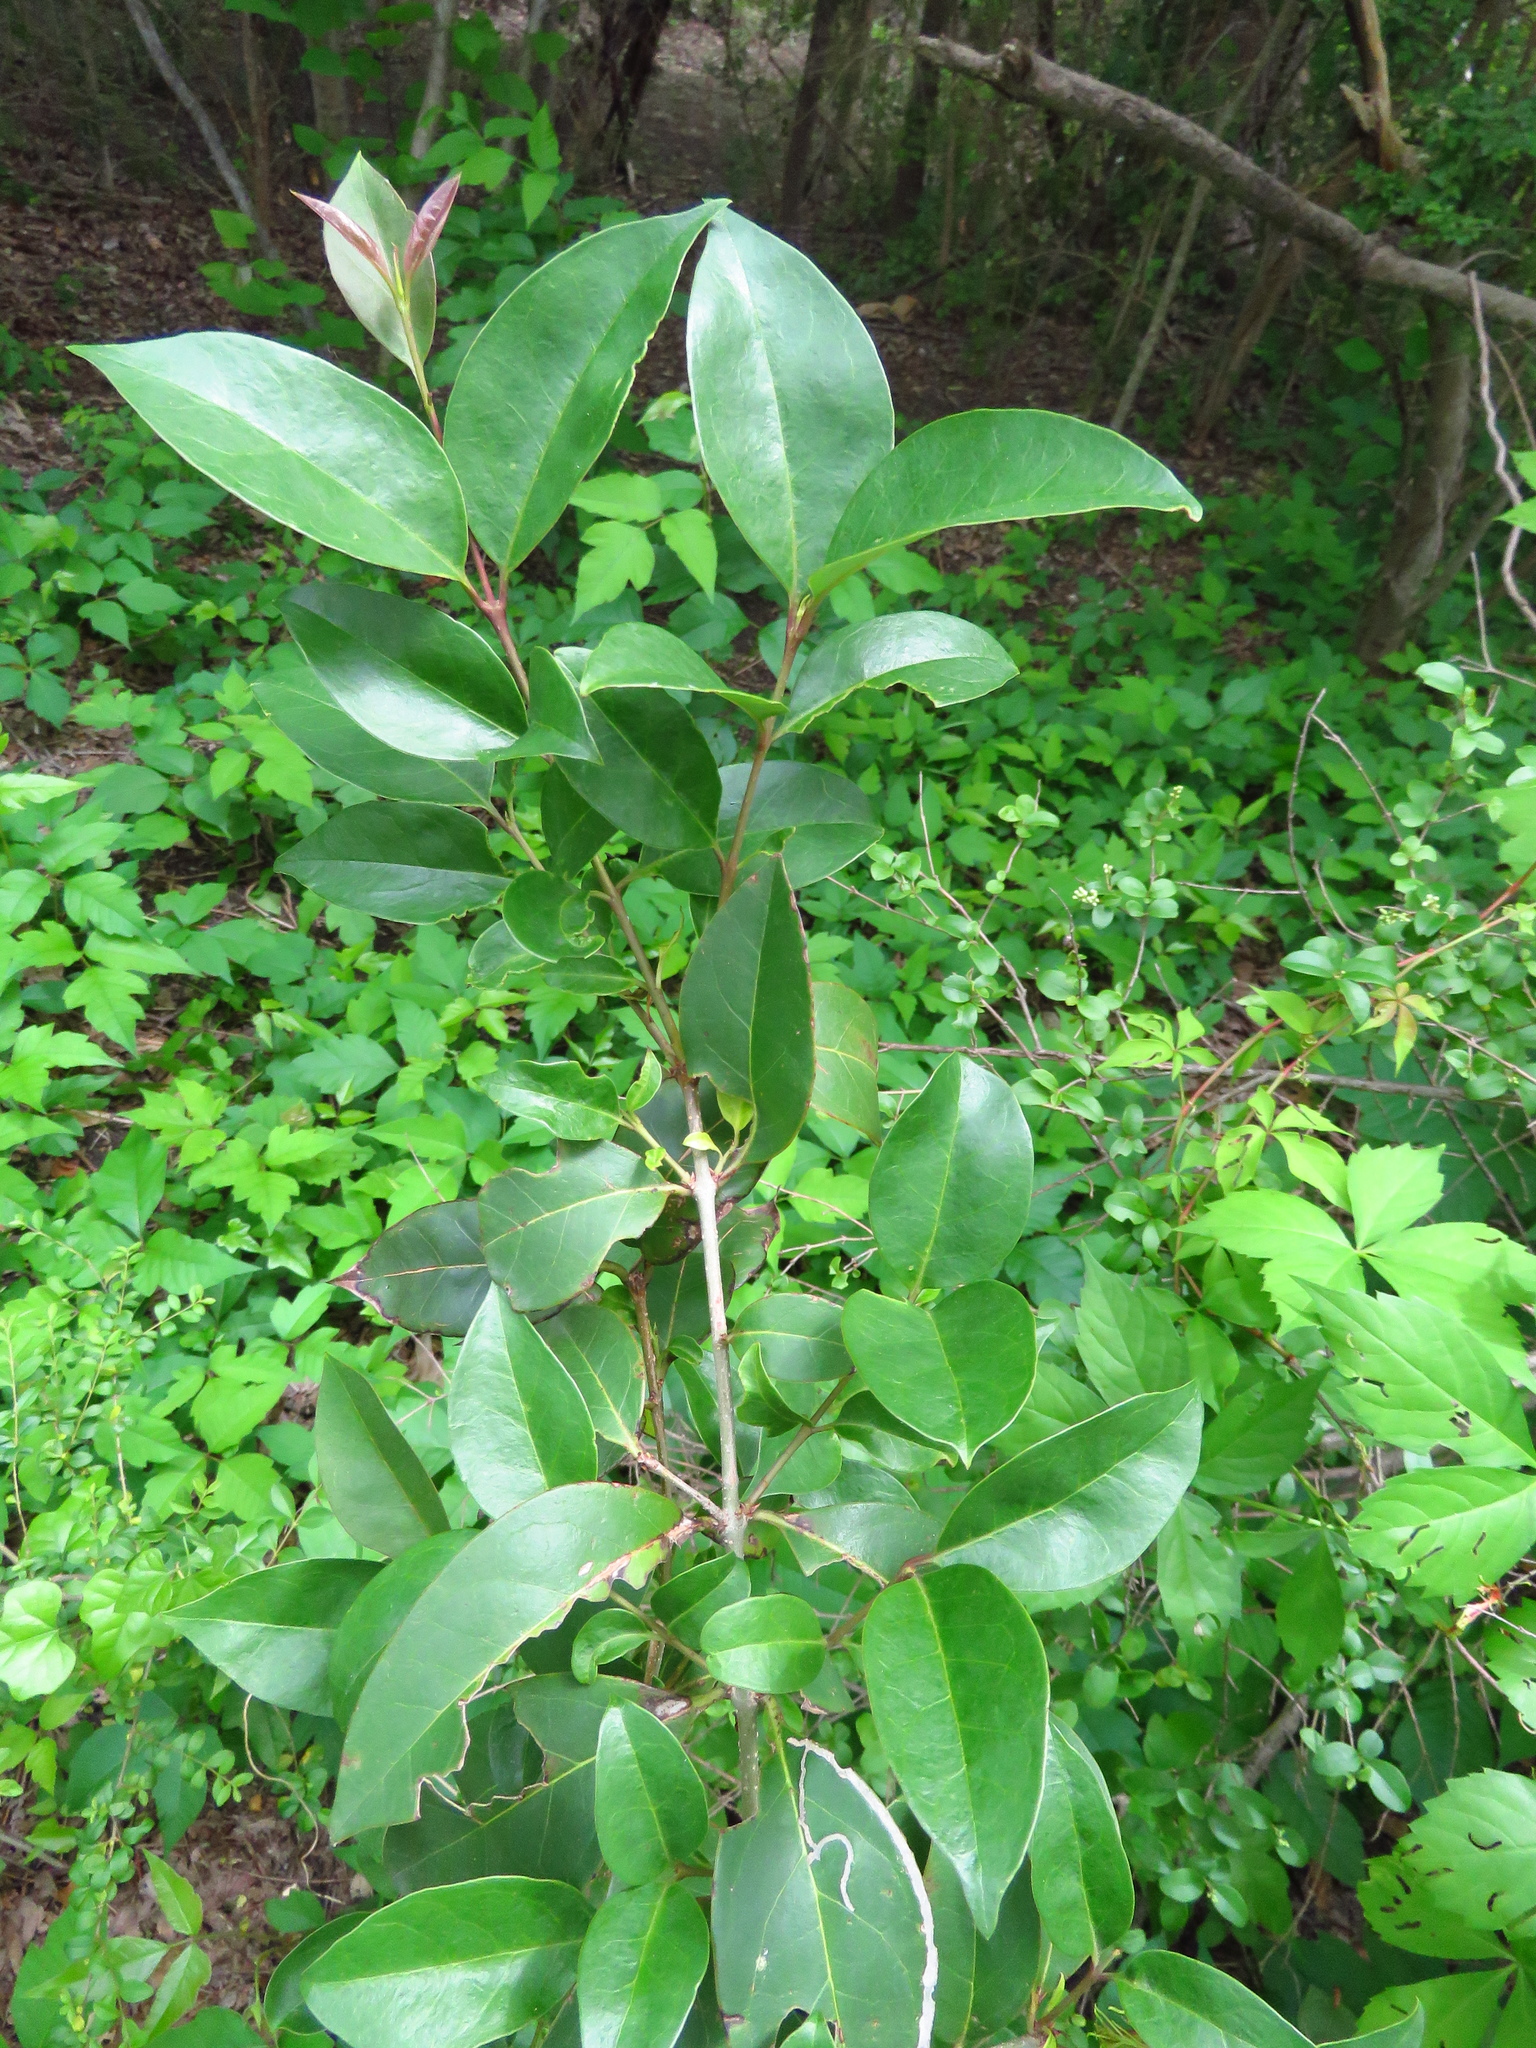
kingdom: Plantae
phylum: Tracheophyta
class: Magnoliopsida
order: Lamiales
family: Oleaceae
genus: Ligustrum
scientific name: Ligustrum lucidum
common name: Glossy privet
